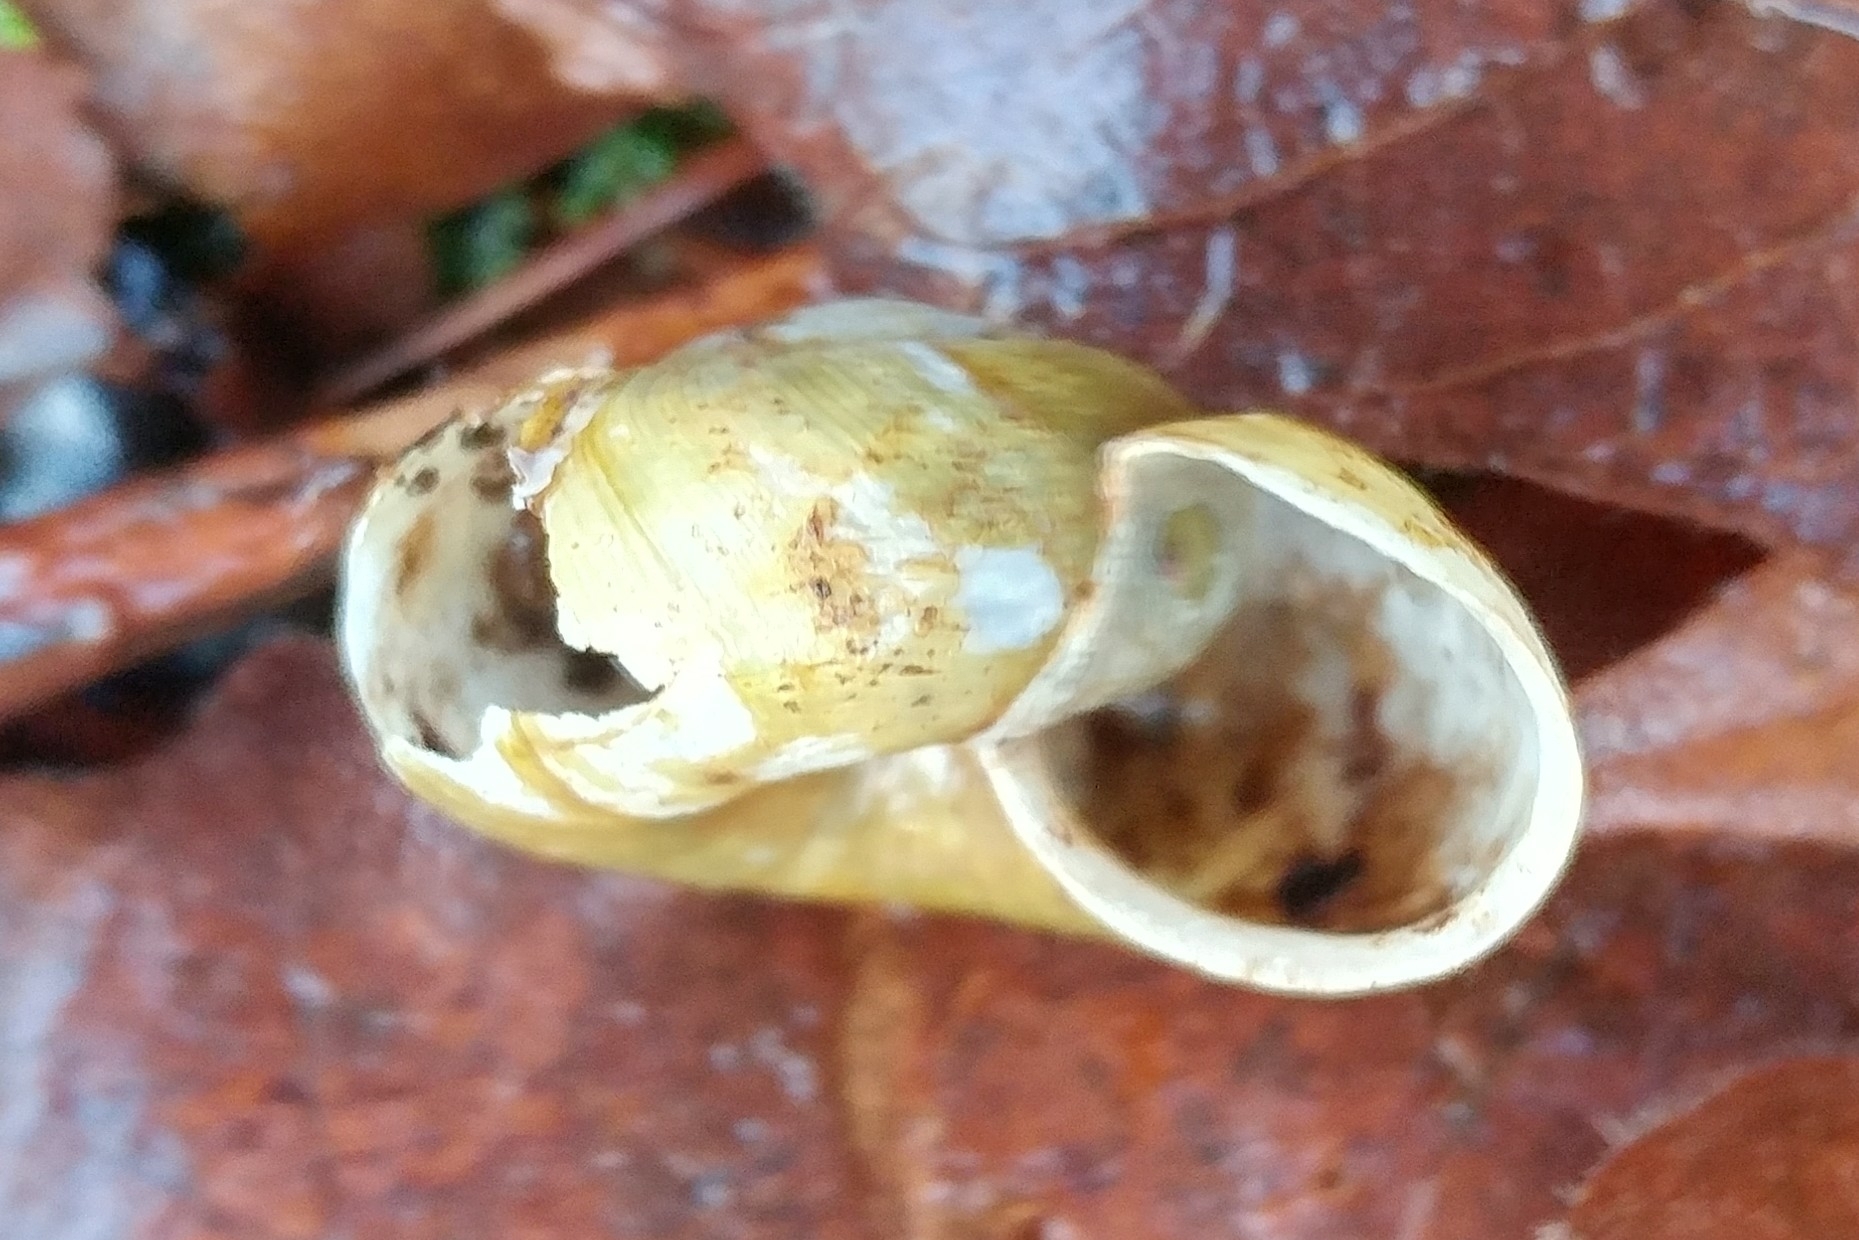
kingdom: Animalia
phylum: Mollusca
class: Gastropoda
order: Stylommatophora
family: Haplotrematidae
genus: Haplotrema
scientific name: Haplotrema vancouverense
